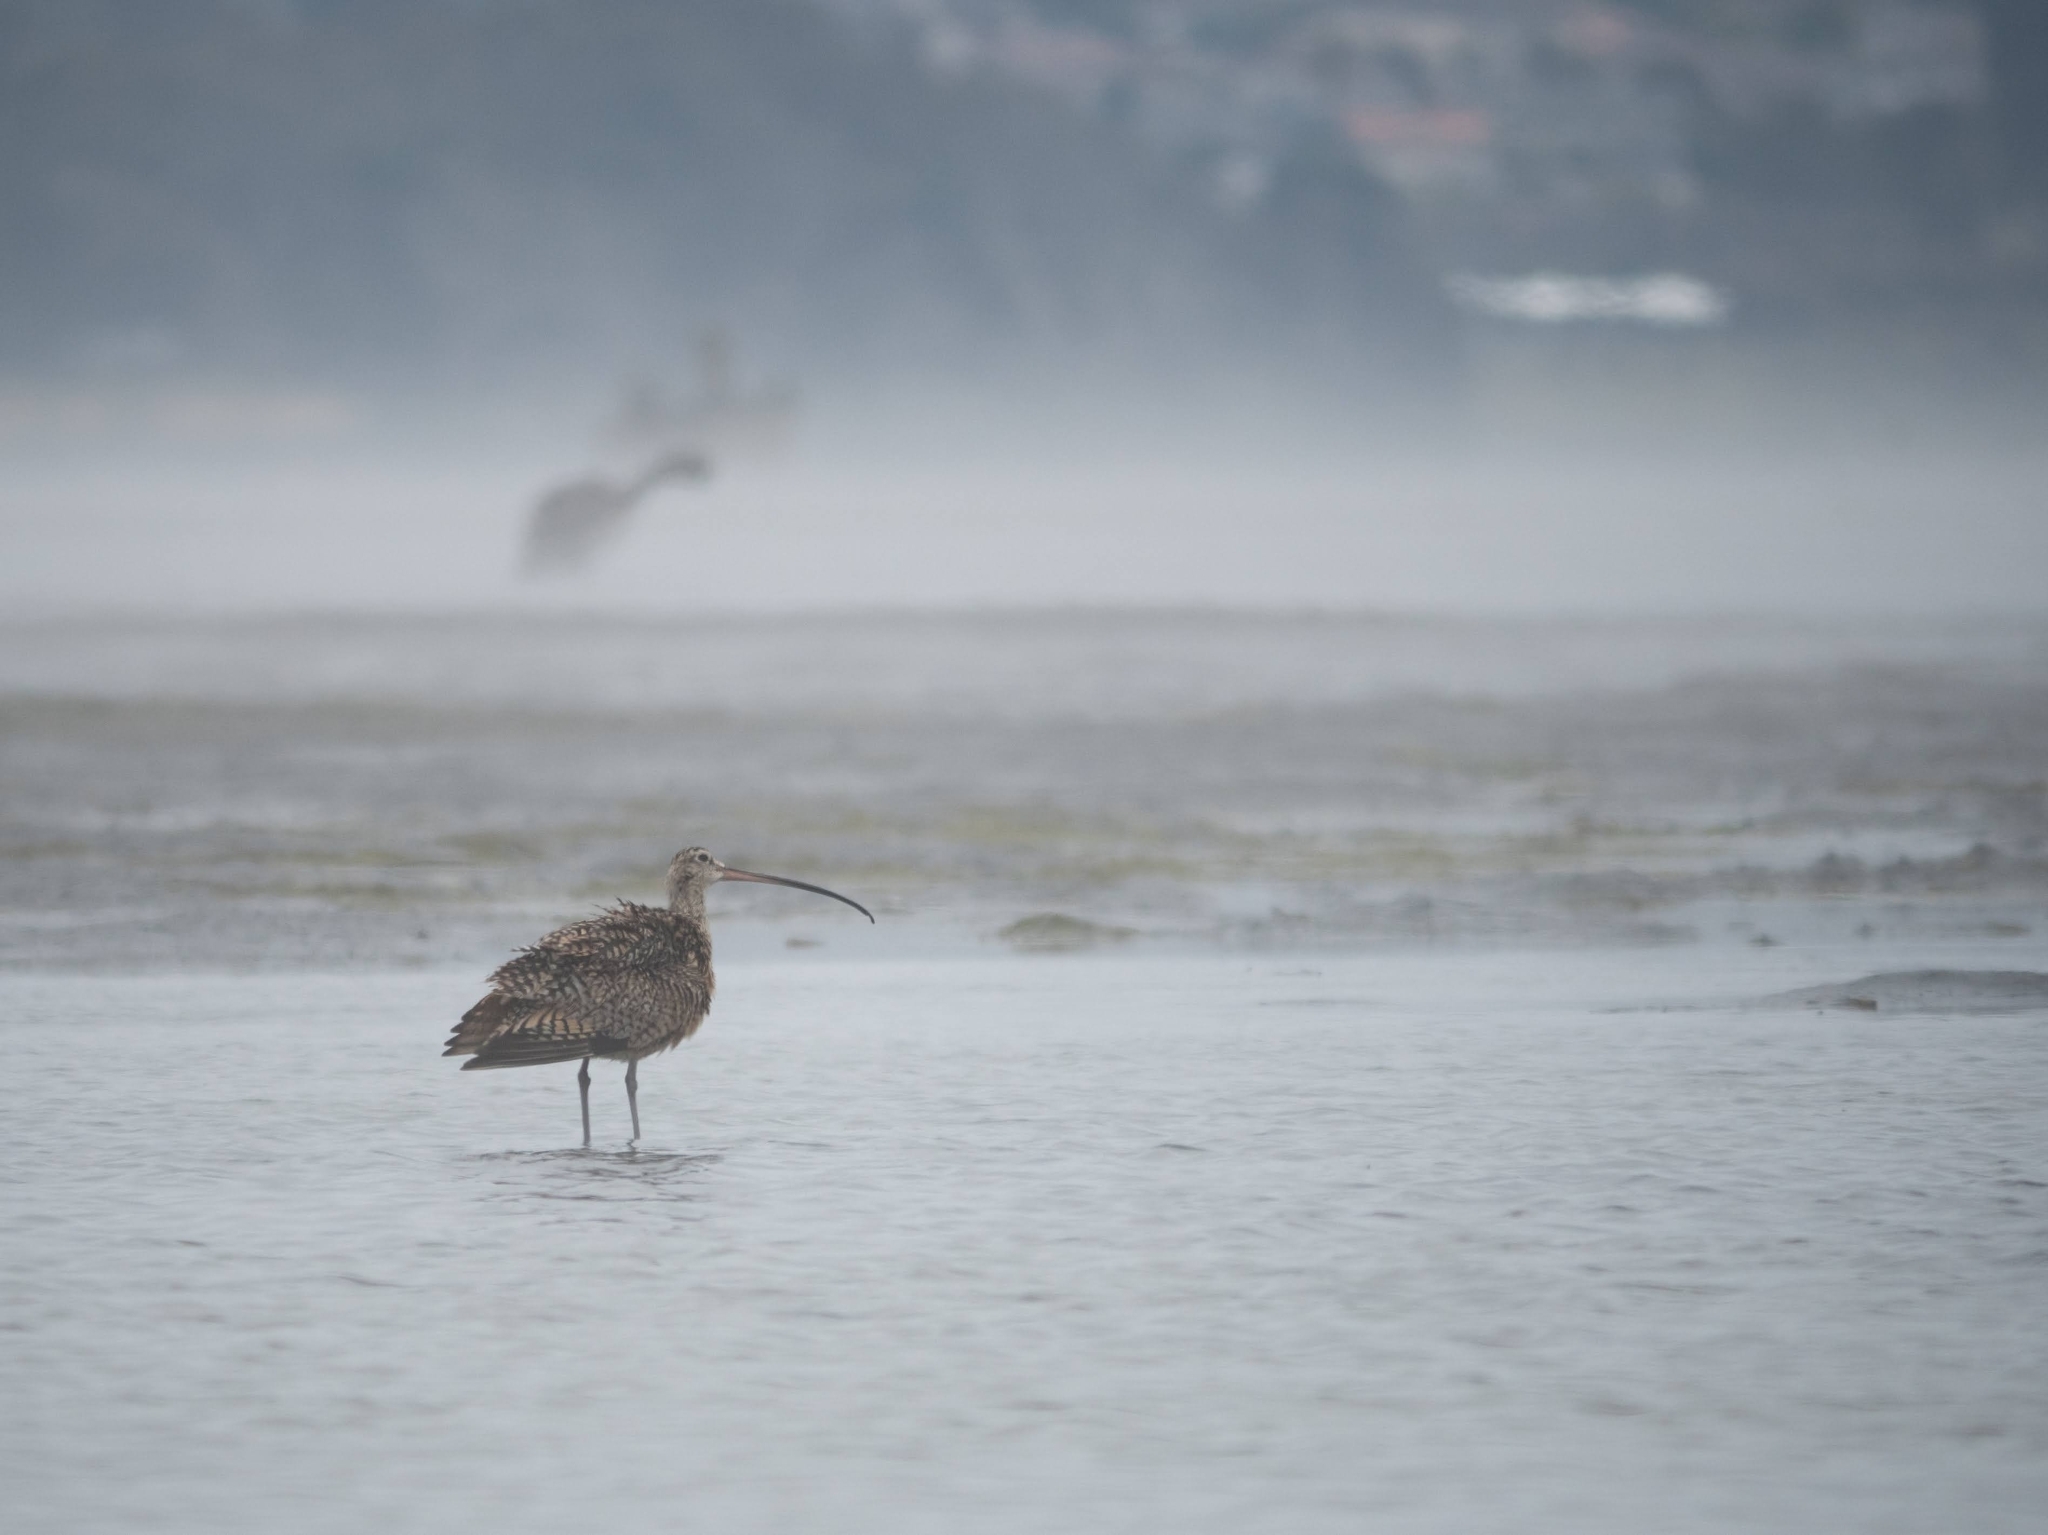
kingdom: Animalia
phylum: Chordata
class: Aves
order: Charadriiformes
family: Scolopacidae
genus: Numenius
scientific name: Numenius americanus
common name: Long-billed curlew
